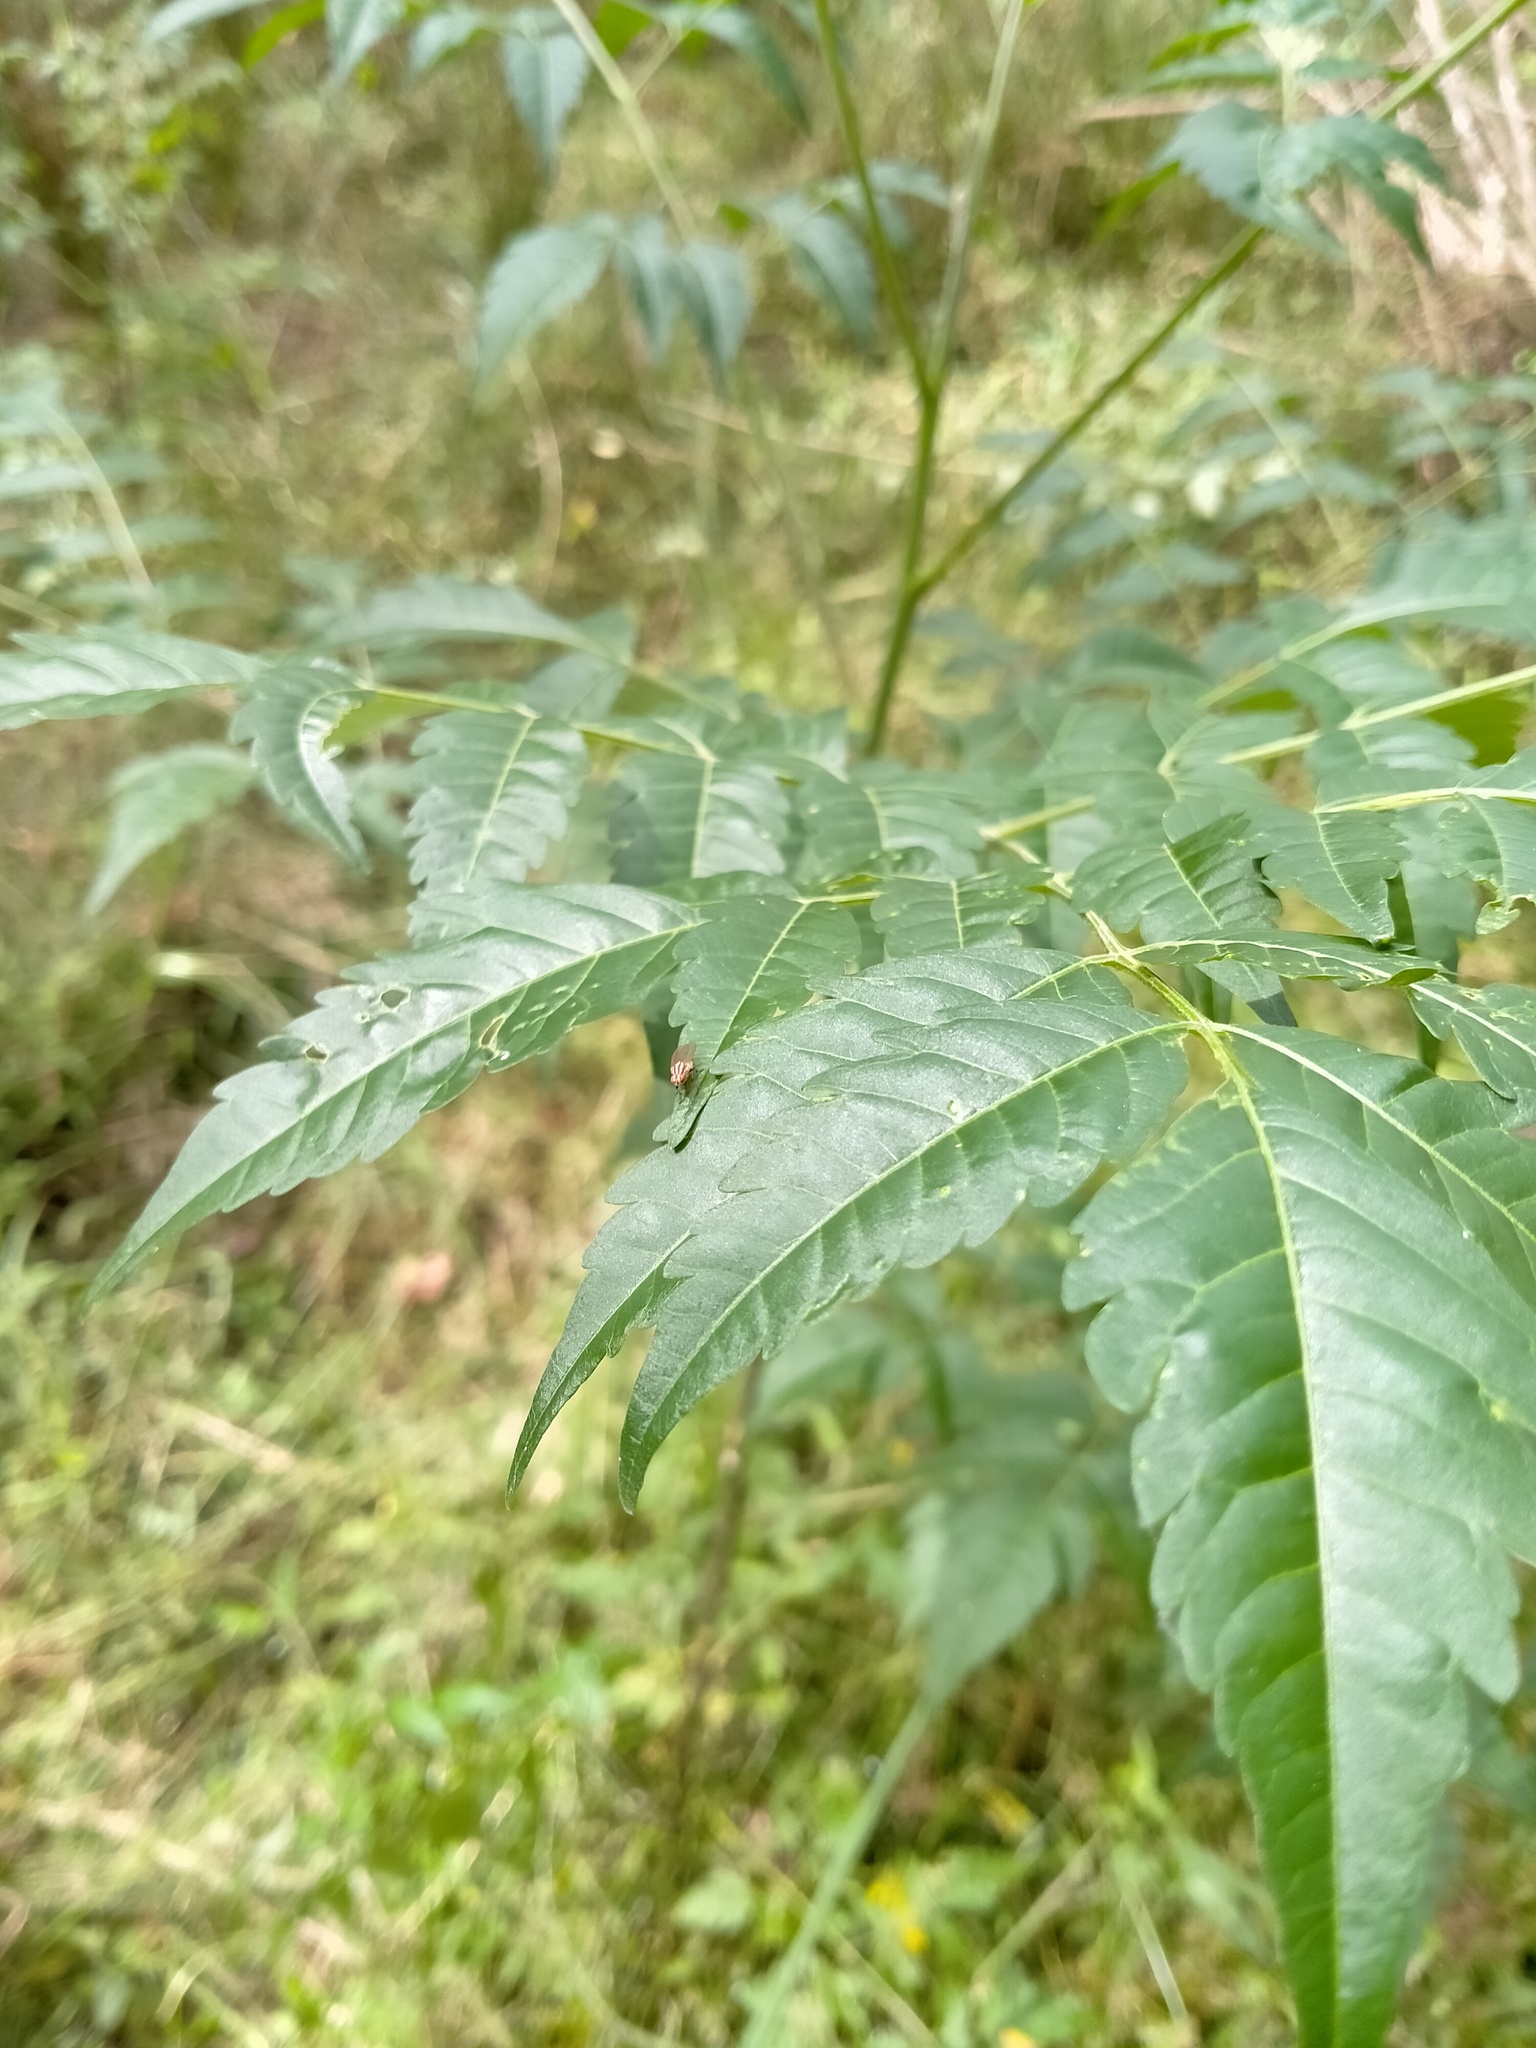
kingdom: Animalia
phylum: Arthropoda
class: Insecta
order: Diptera
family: Lauxaniidae
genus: Sapromyza
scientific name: Sapromyza brunneovittata
